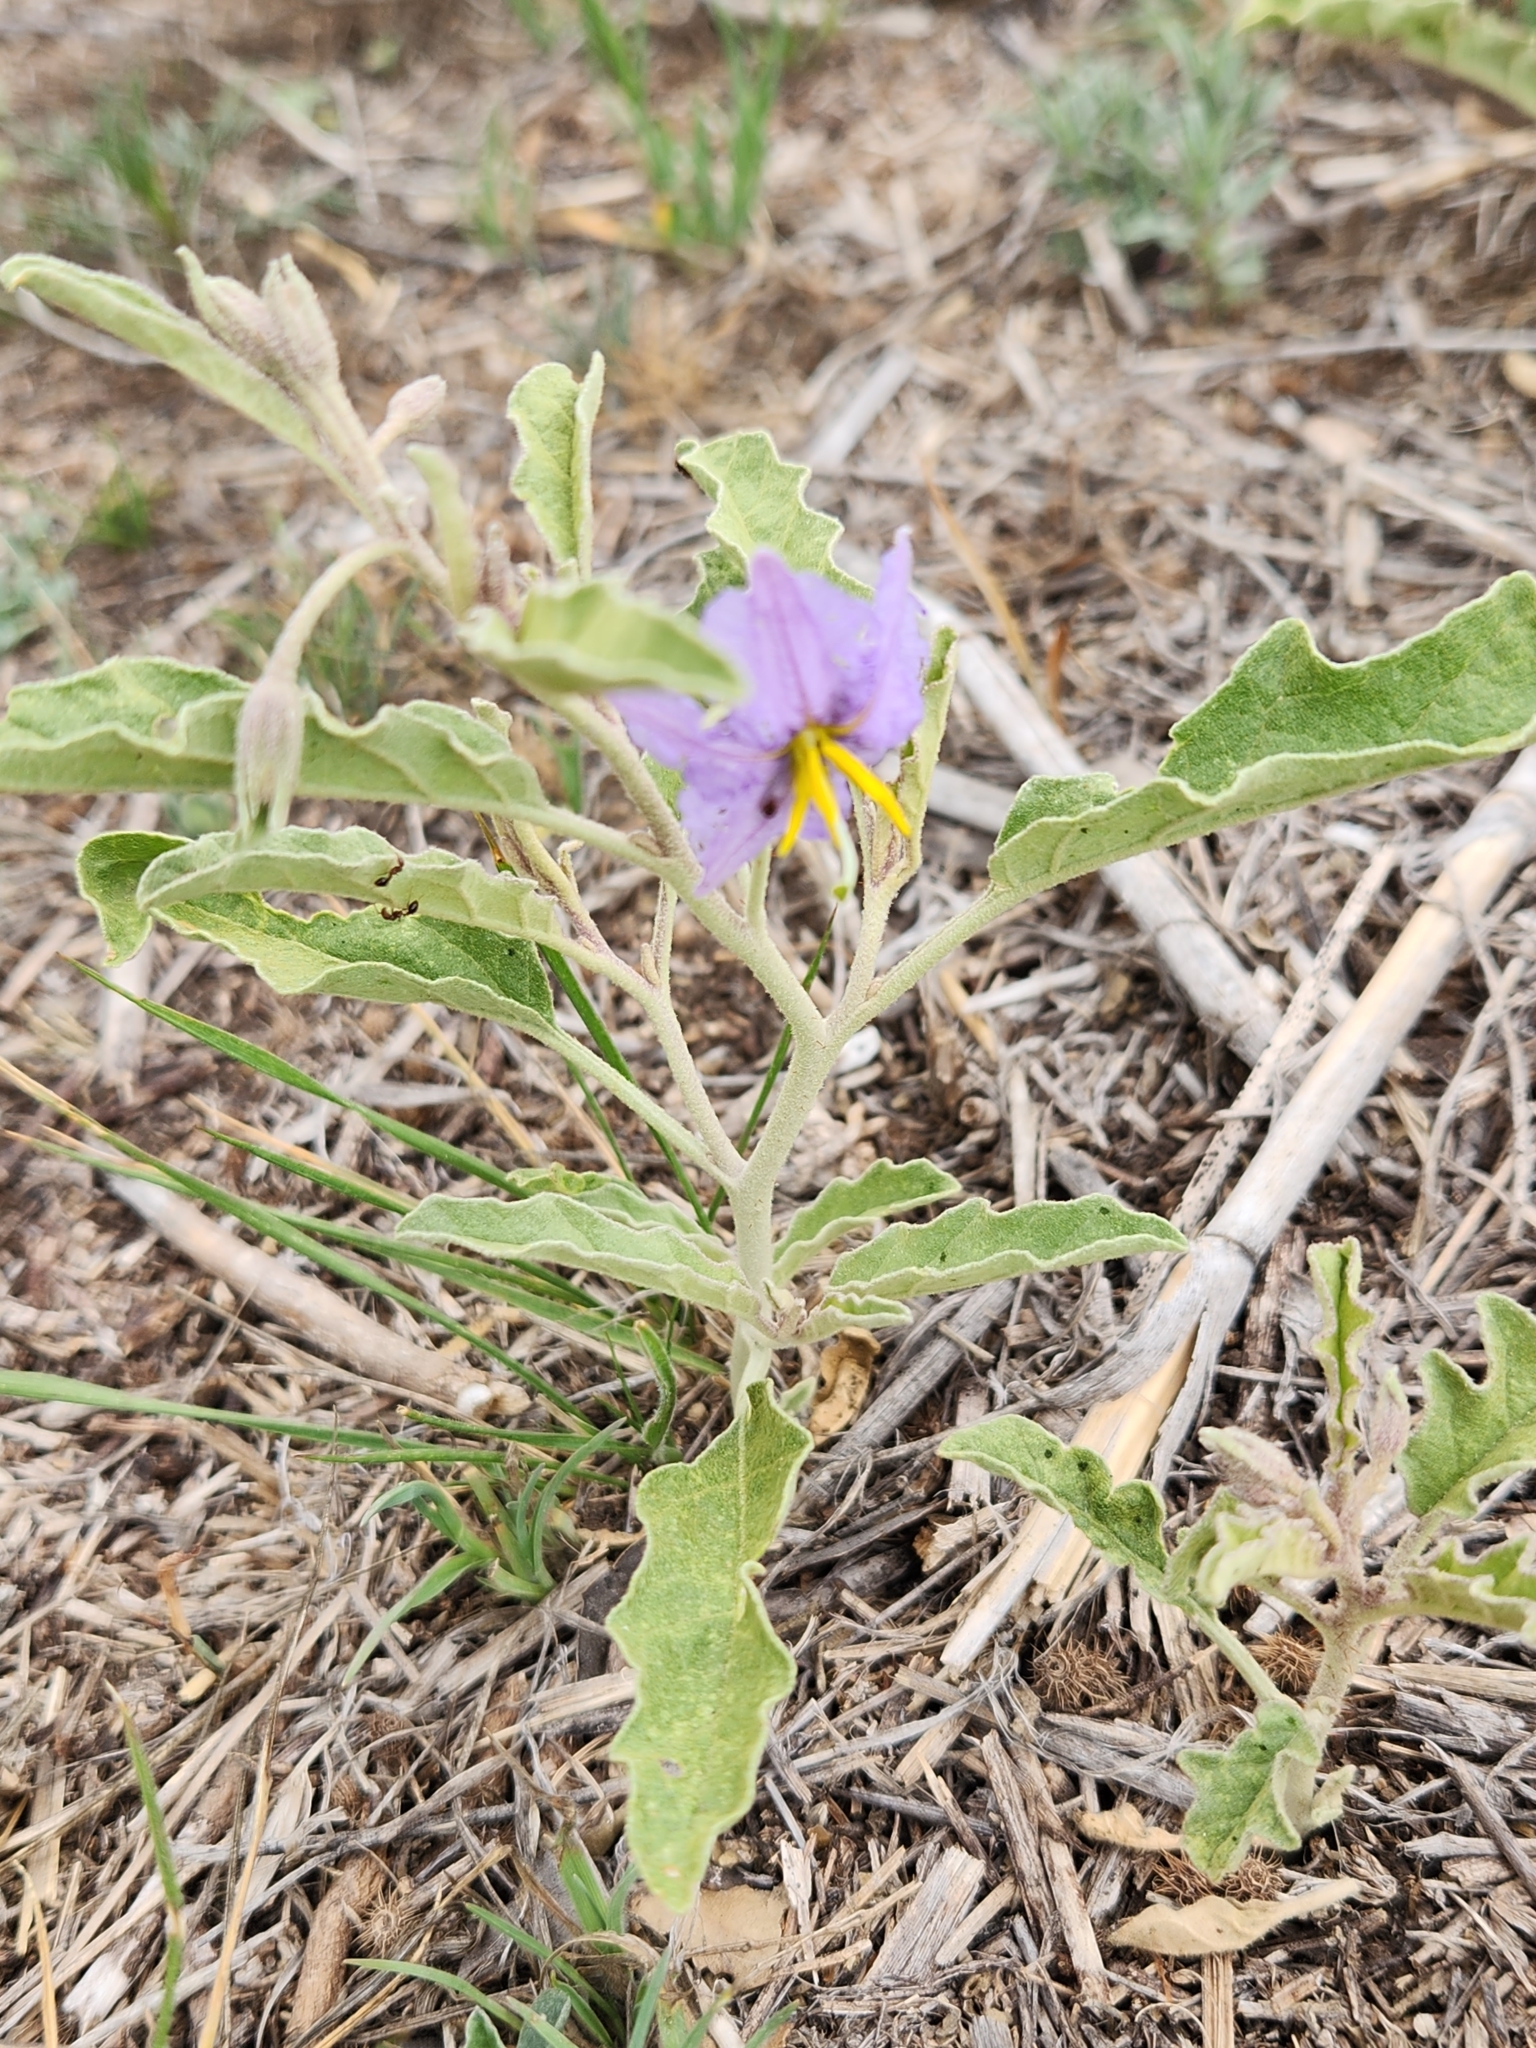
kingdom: Plantae
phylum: Tracheophyta
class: Magnoliopsida
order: Solanales
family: Solanaceae
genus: Solanum
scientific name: Solanum elaeagnifolium
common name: Silverleaf nightshade
